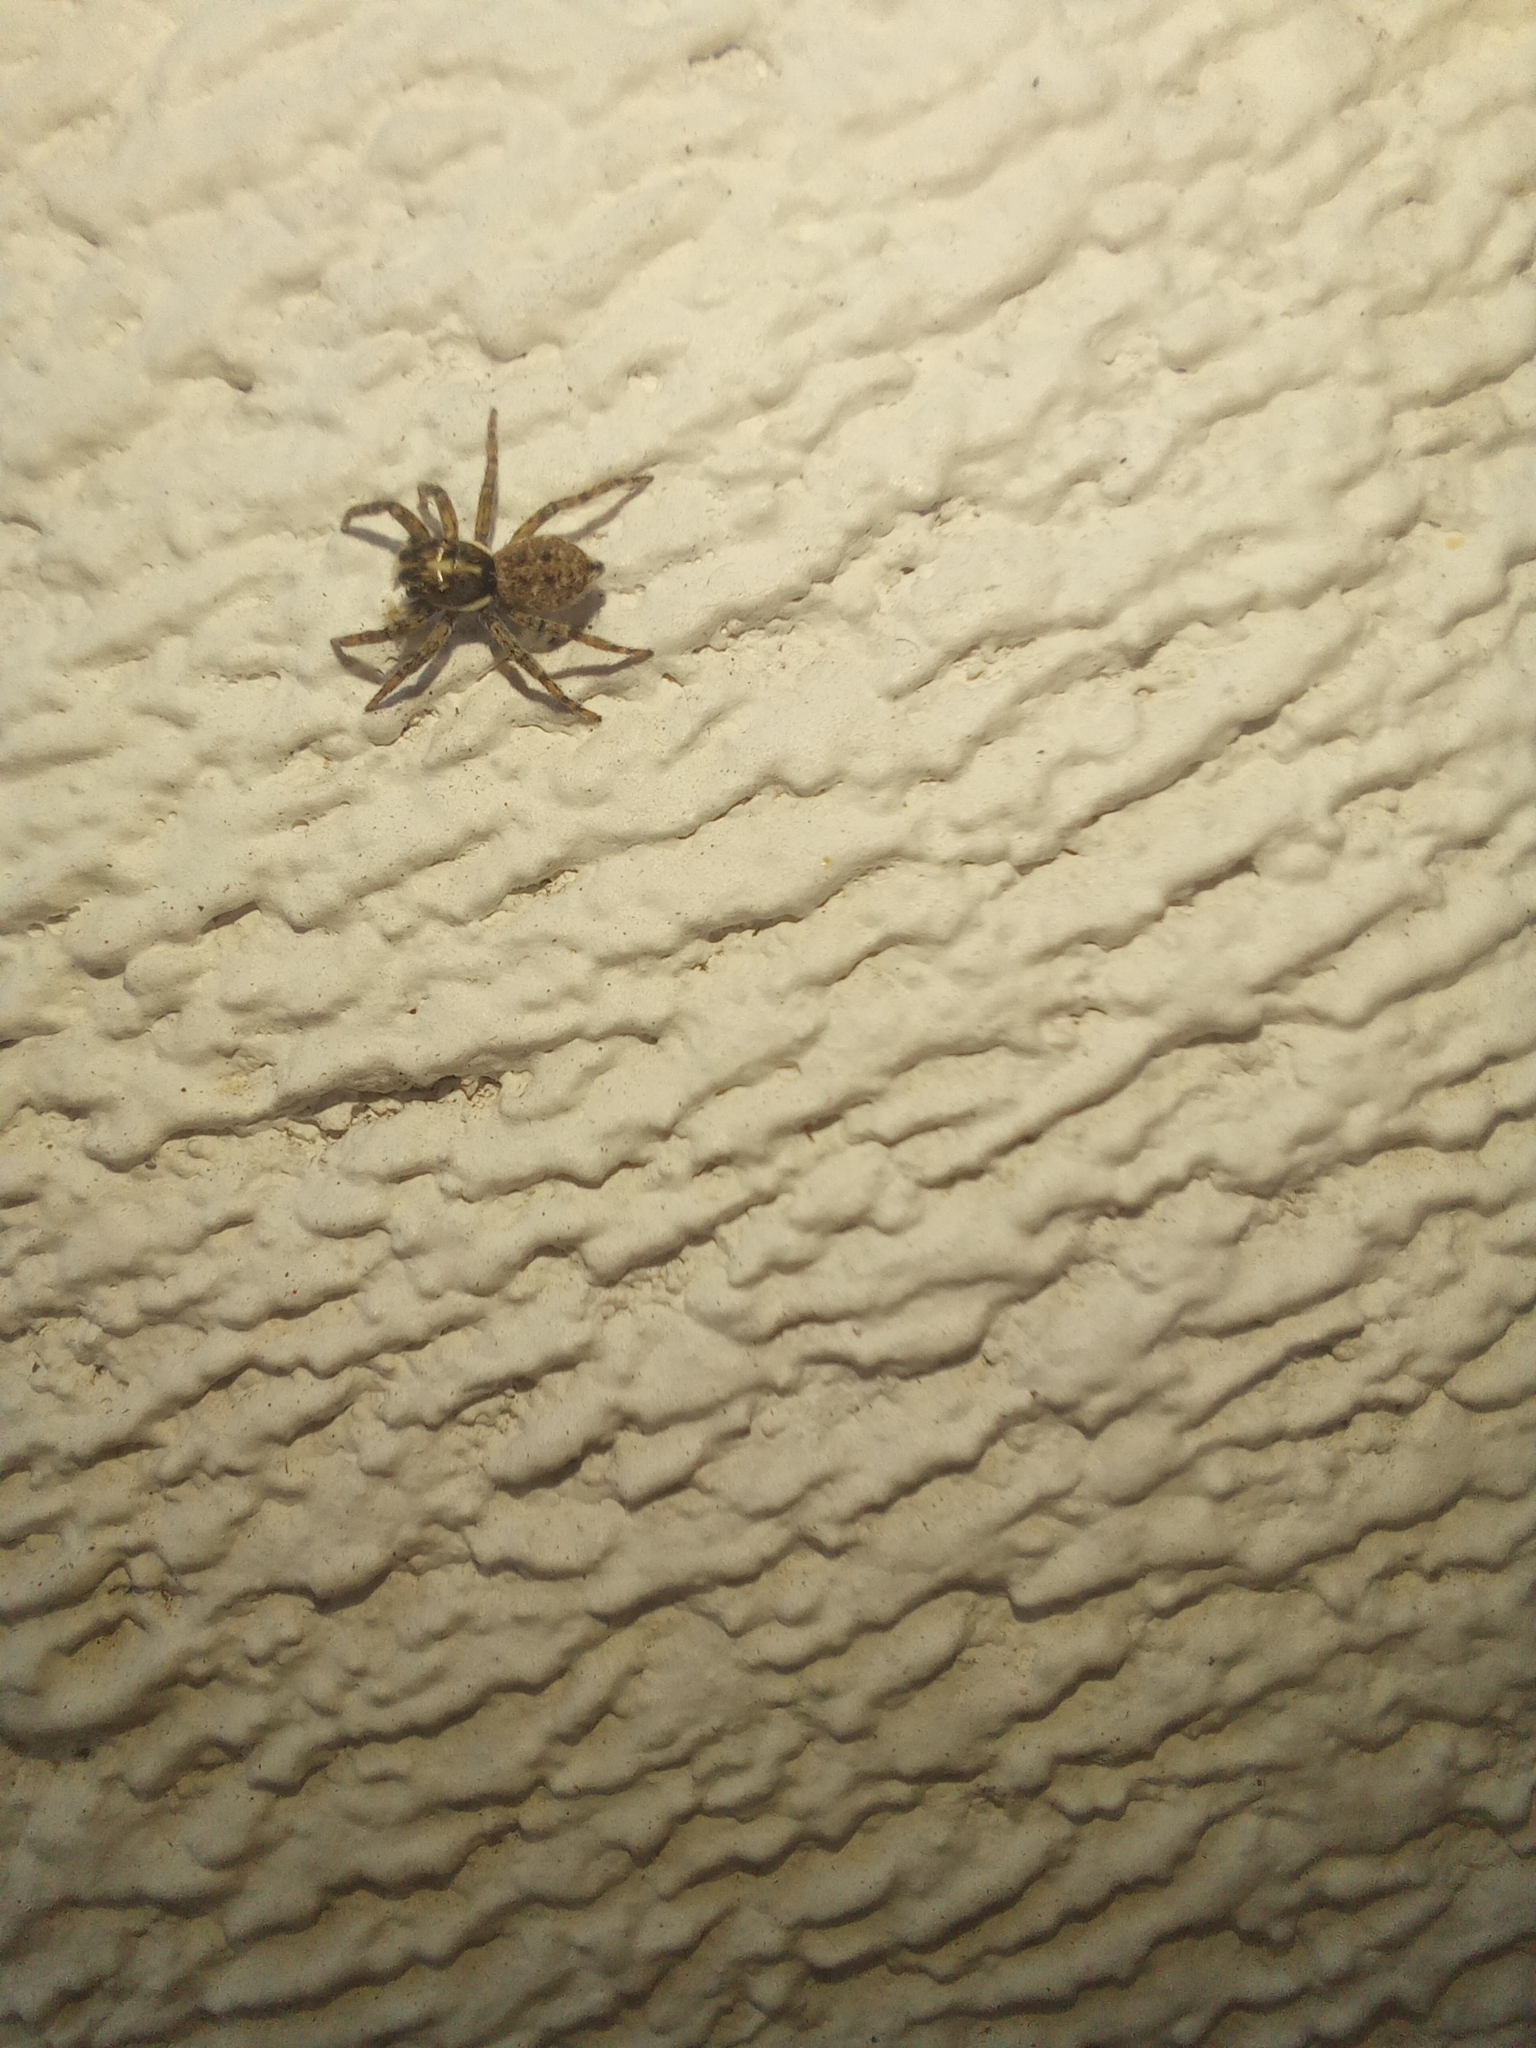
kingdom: Animalia
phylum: Arthropoda
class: Arachnida
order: Araneae
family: Salticidae
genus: Menemerus
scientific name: Menemerus semilimbatus
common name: Jumping spider
